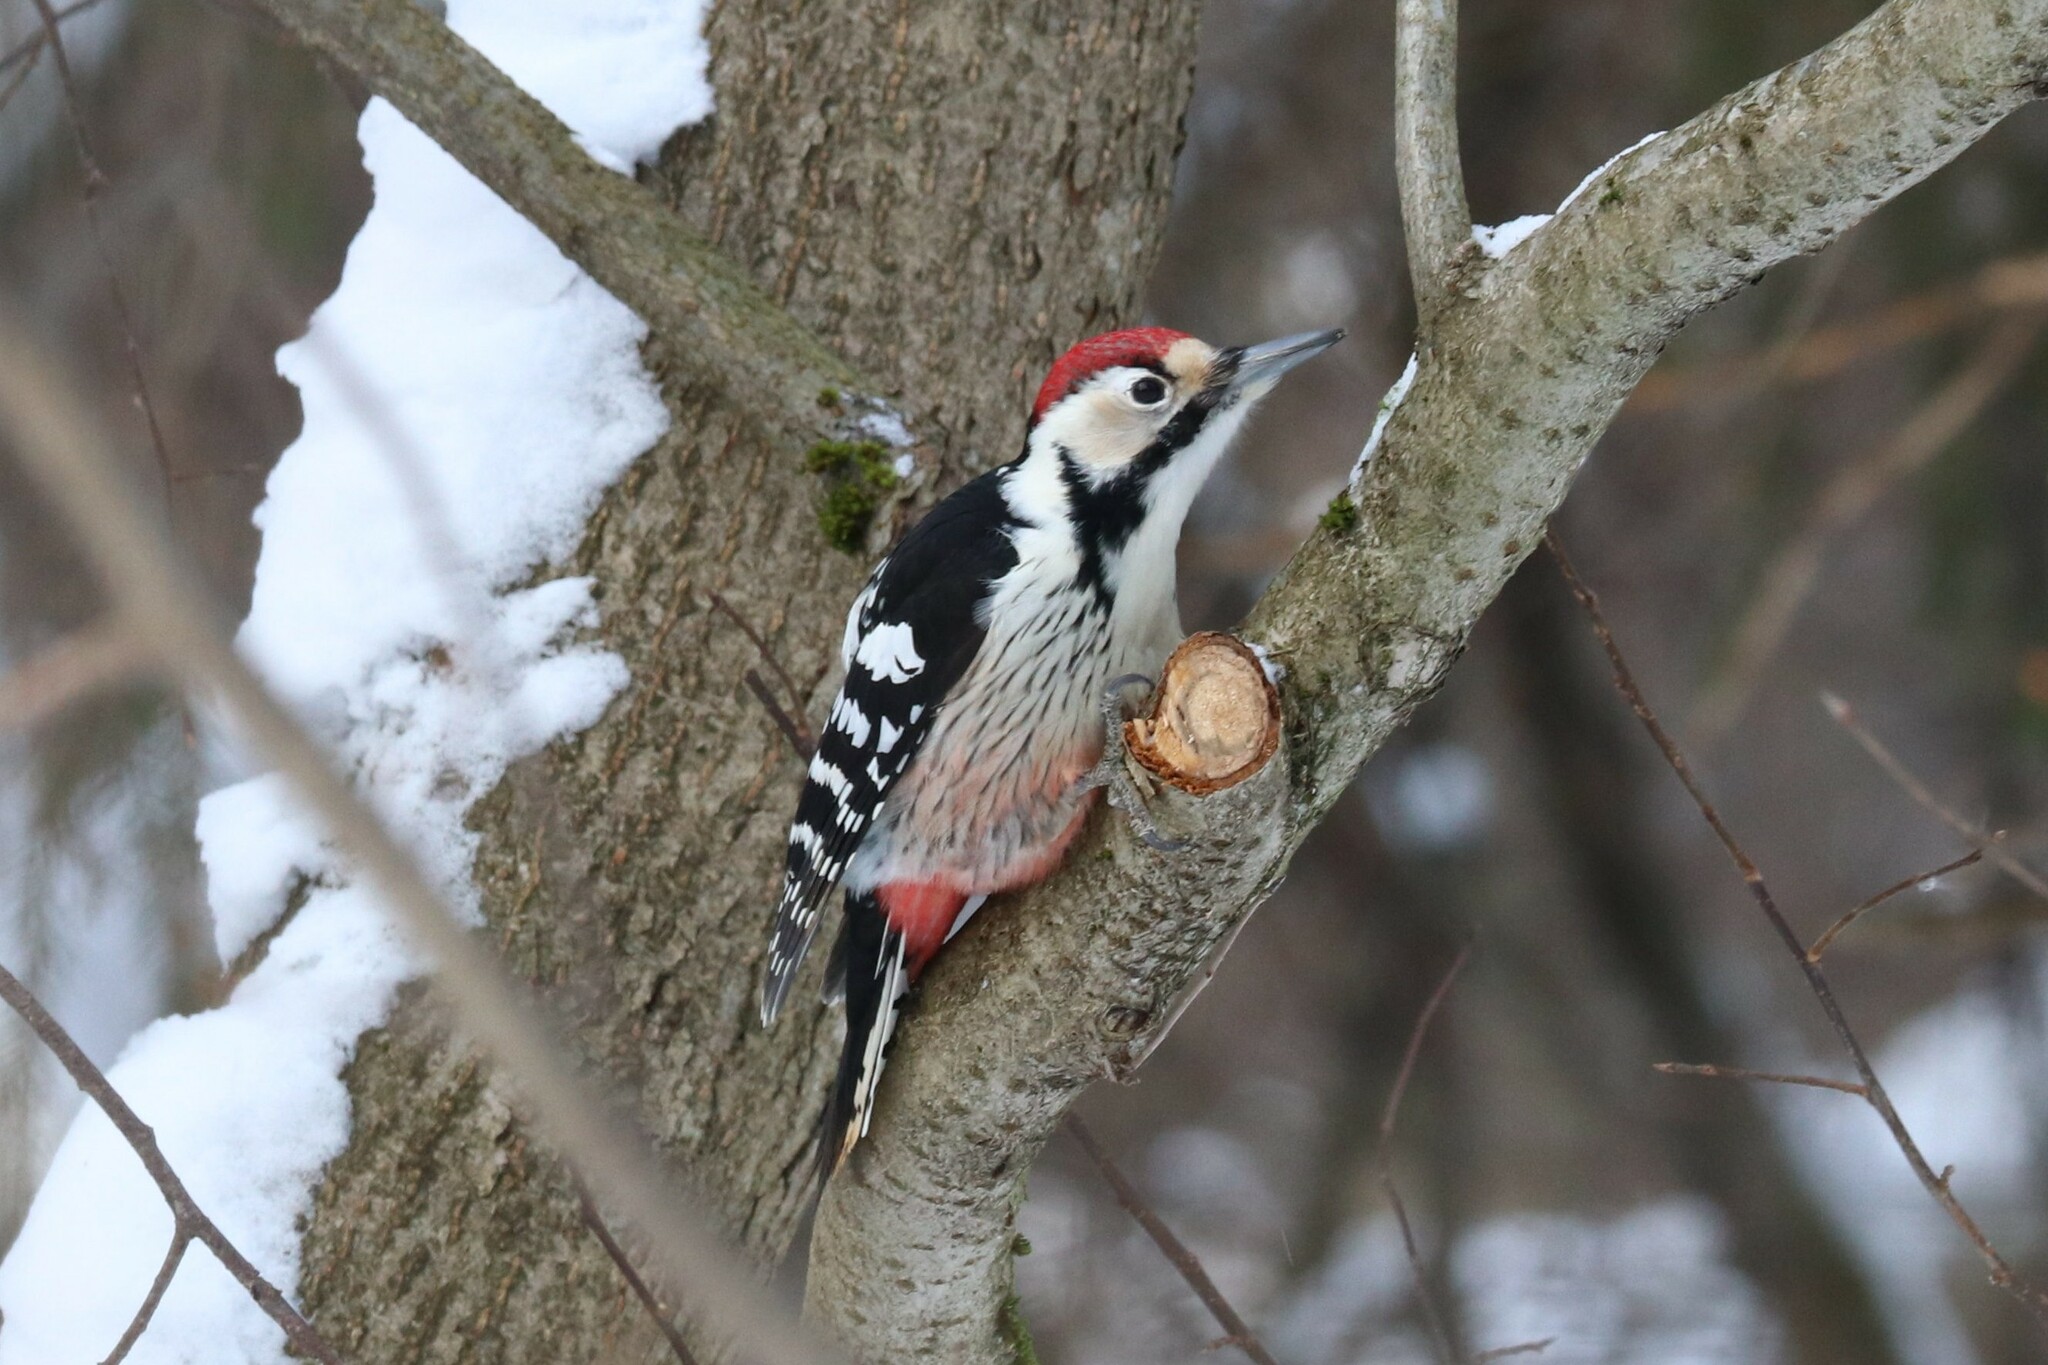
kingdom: Animalia
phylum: Chordata
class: Aves
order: Piciformes
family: Picidae
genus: Dendrocopos
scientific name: Dendrocopos leucotos
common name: White-backed woodpecker
